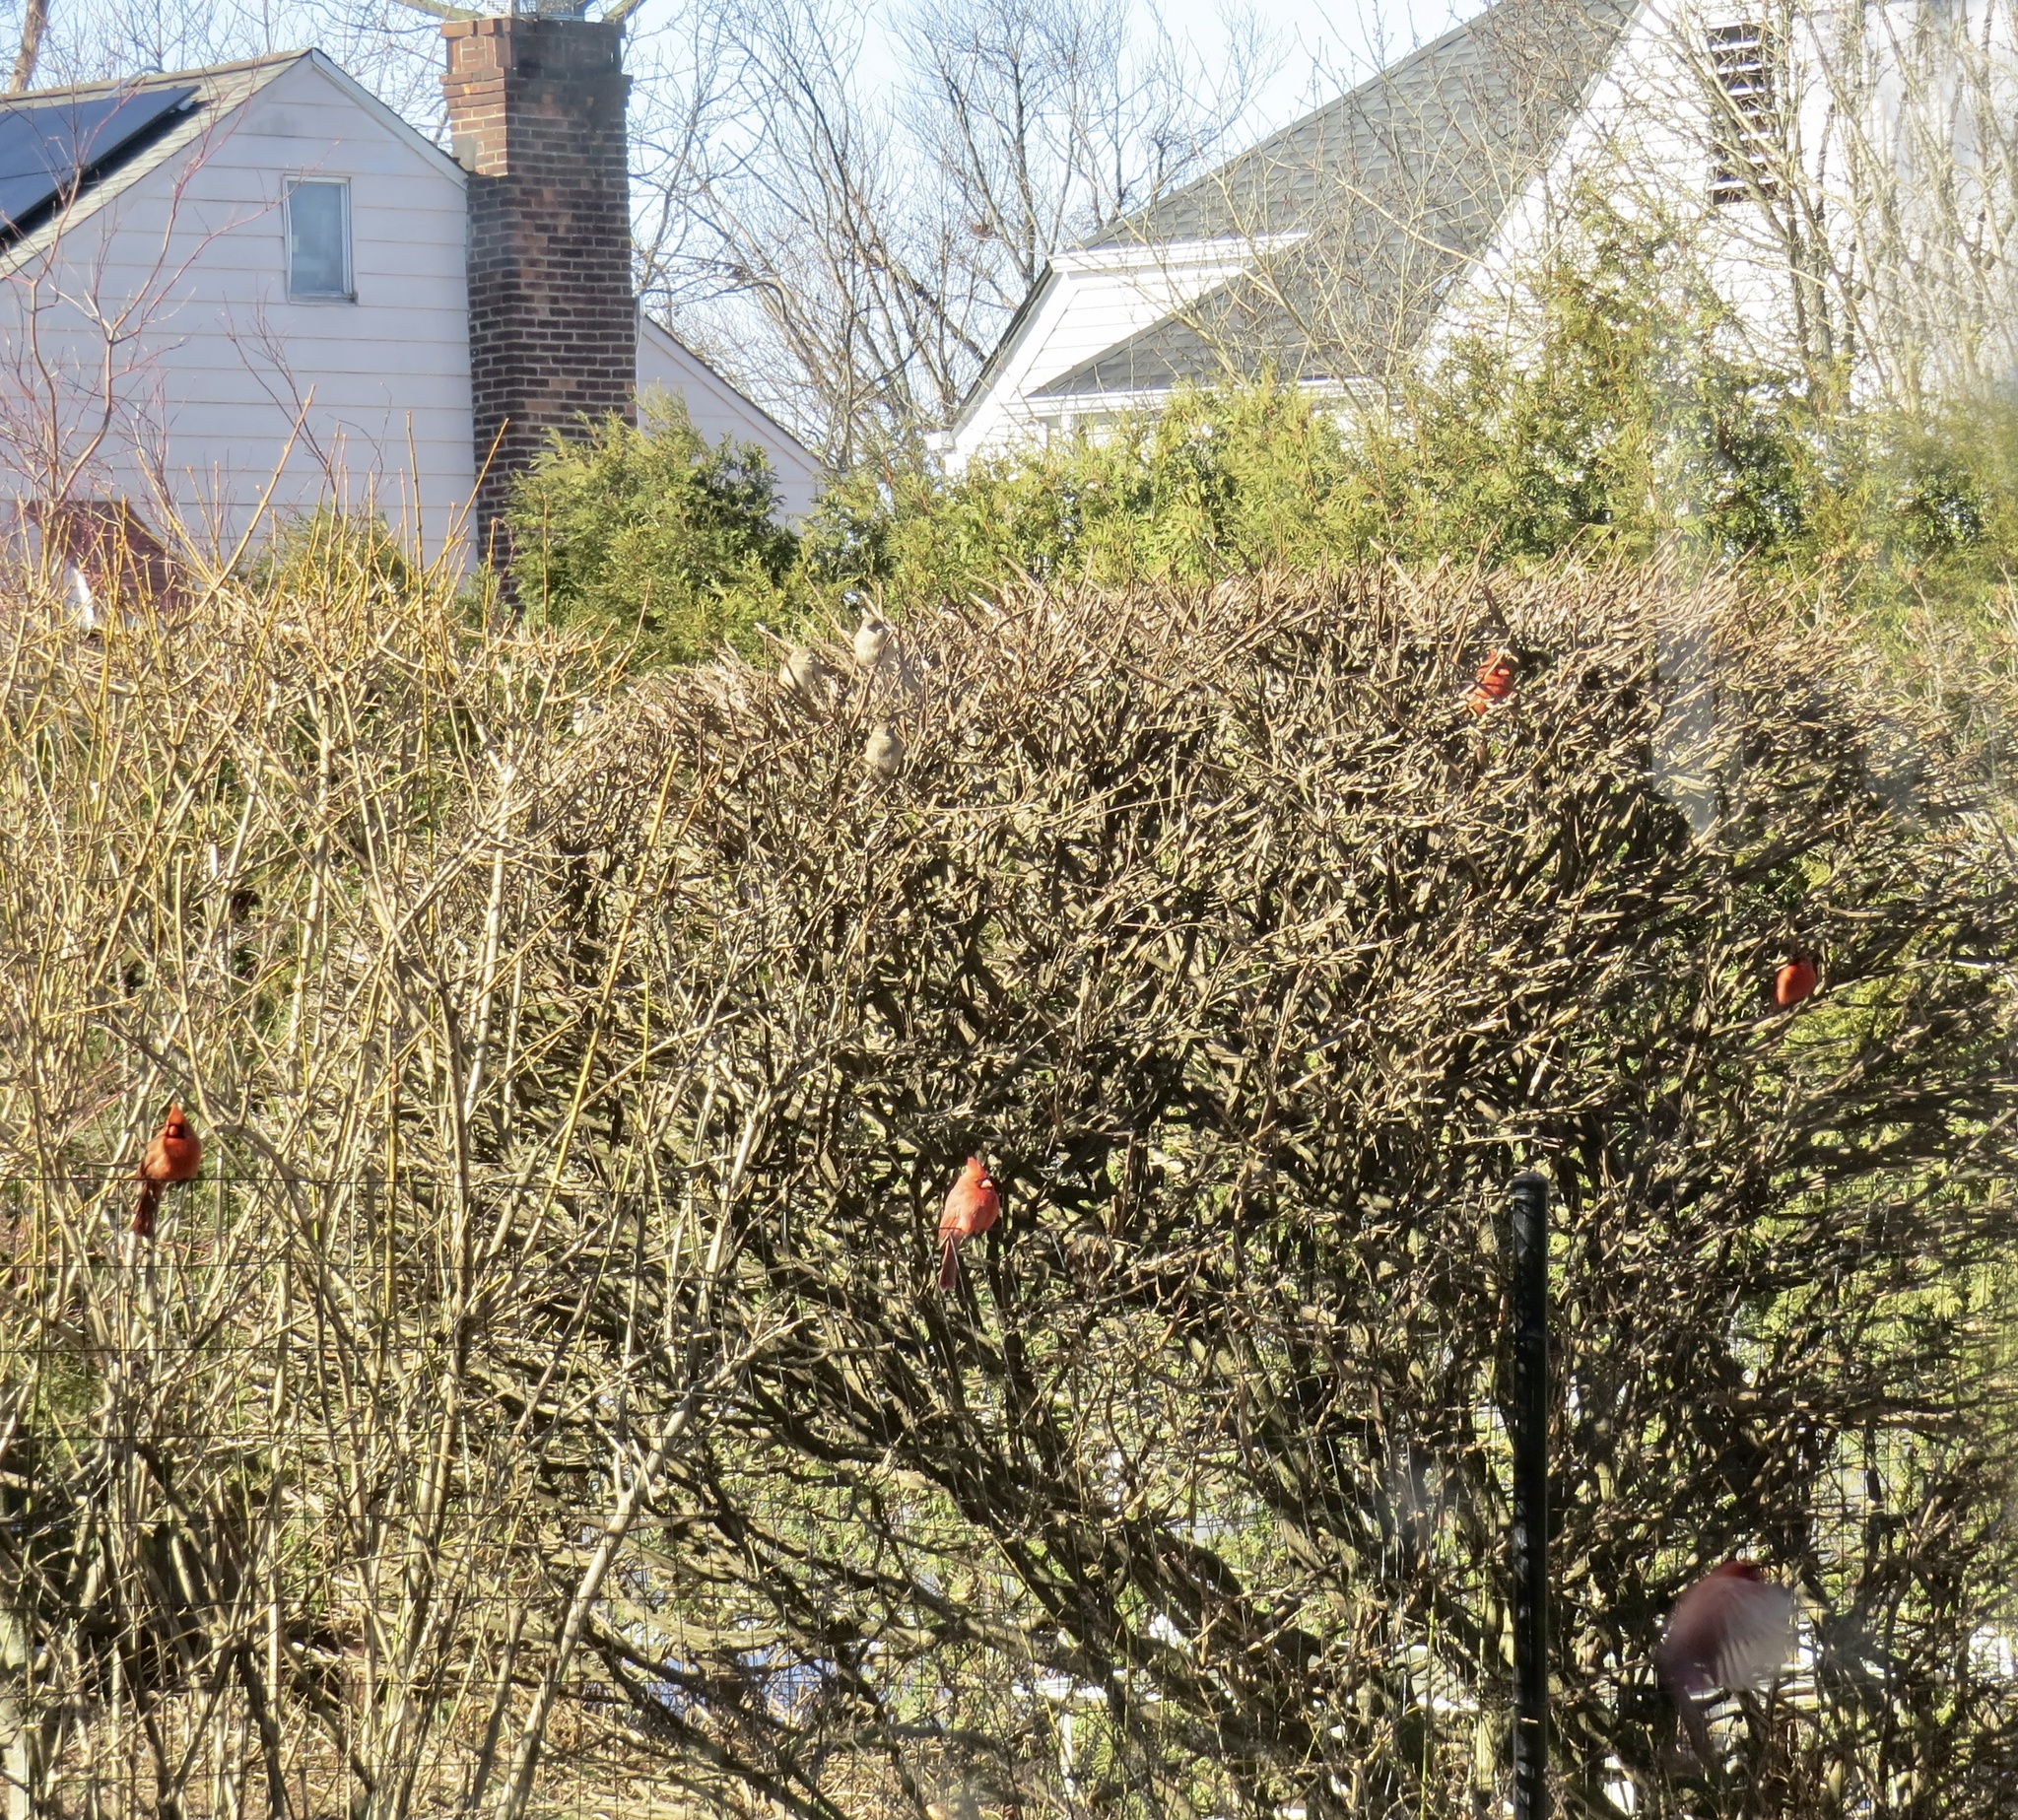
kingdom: Animalia
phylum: Chordata
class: Aves
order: Passeriformes
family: Cardinalidae
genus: Cardinalis
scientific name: Cardinalis cardinalis
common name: Northern cardinal
